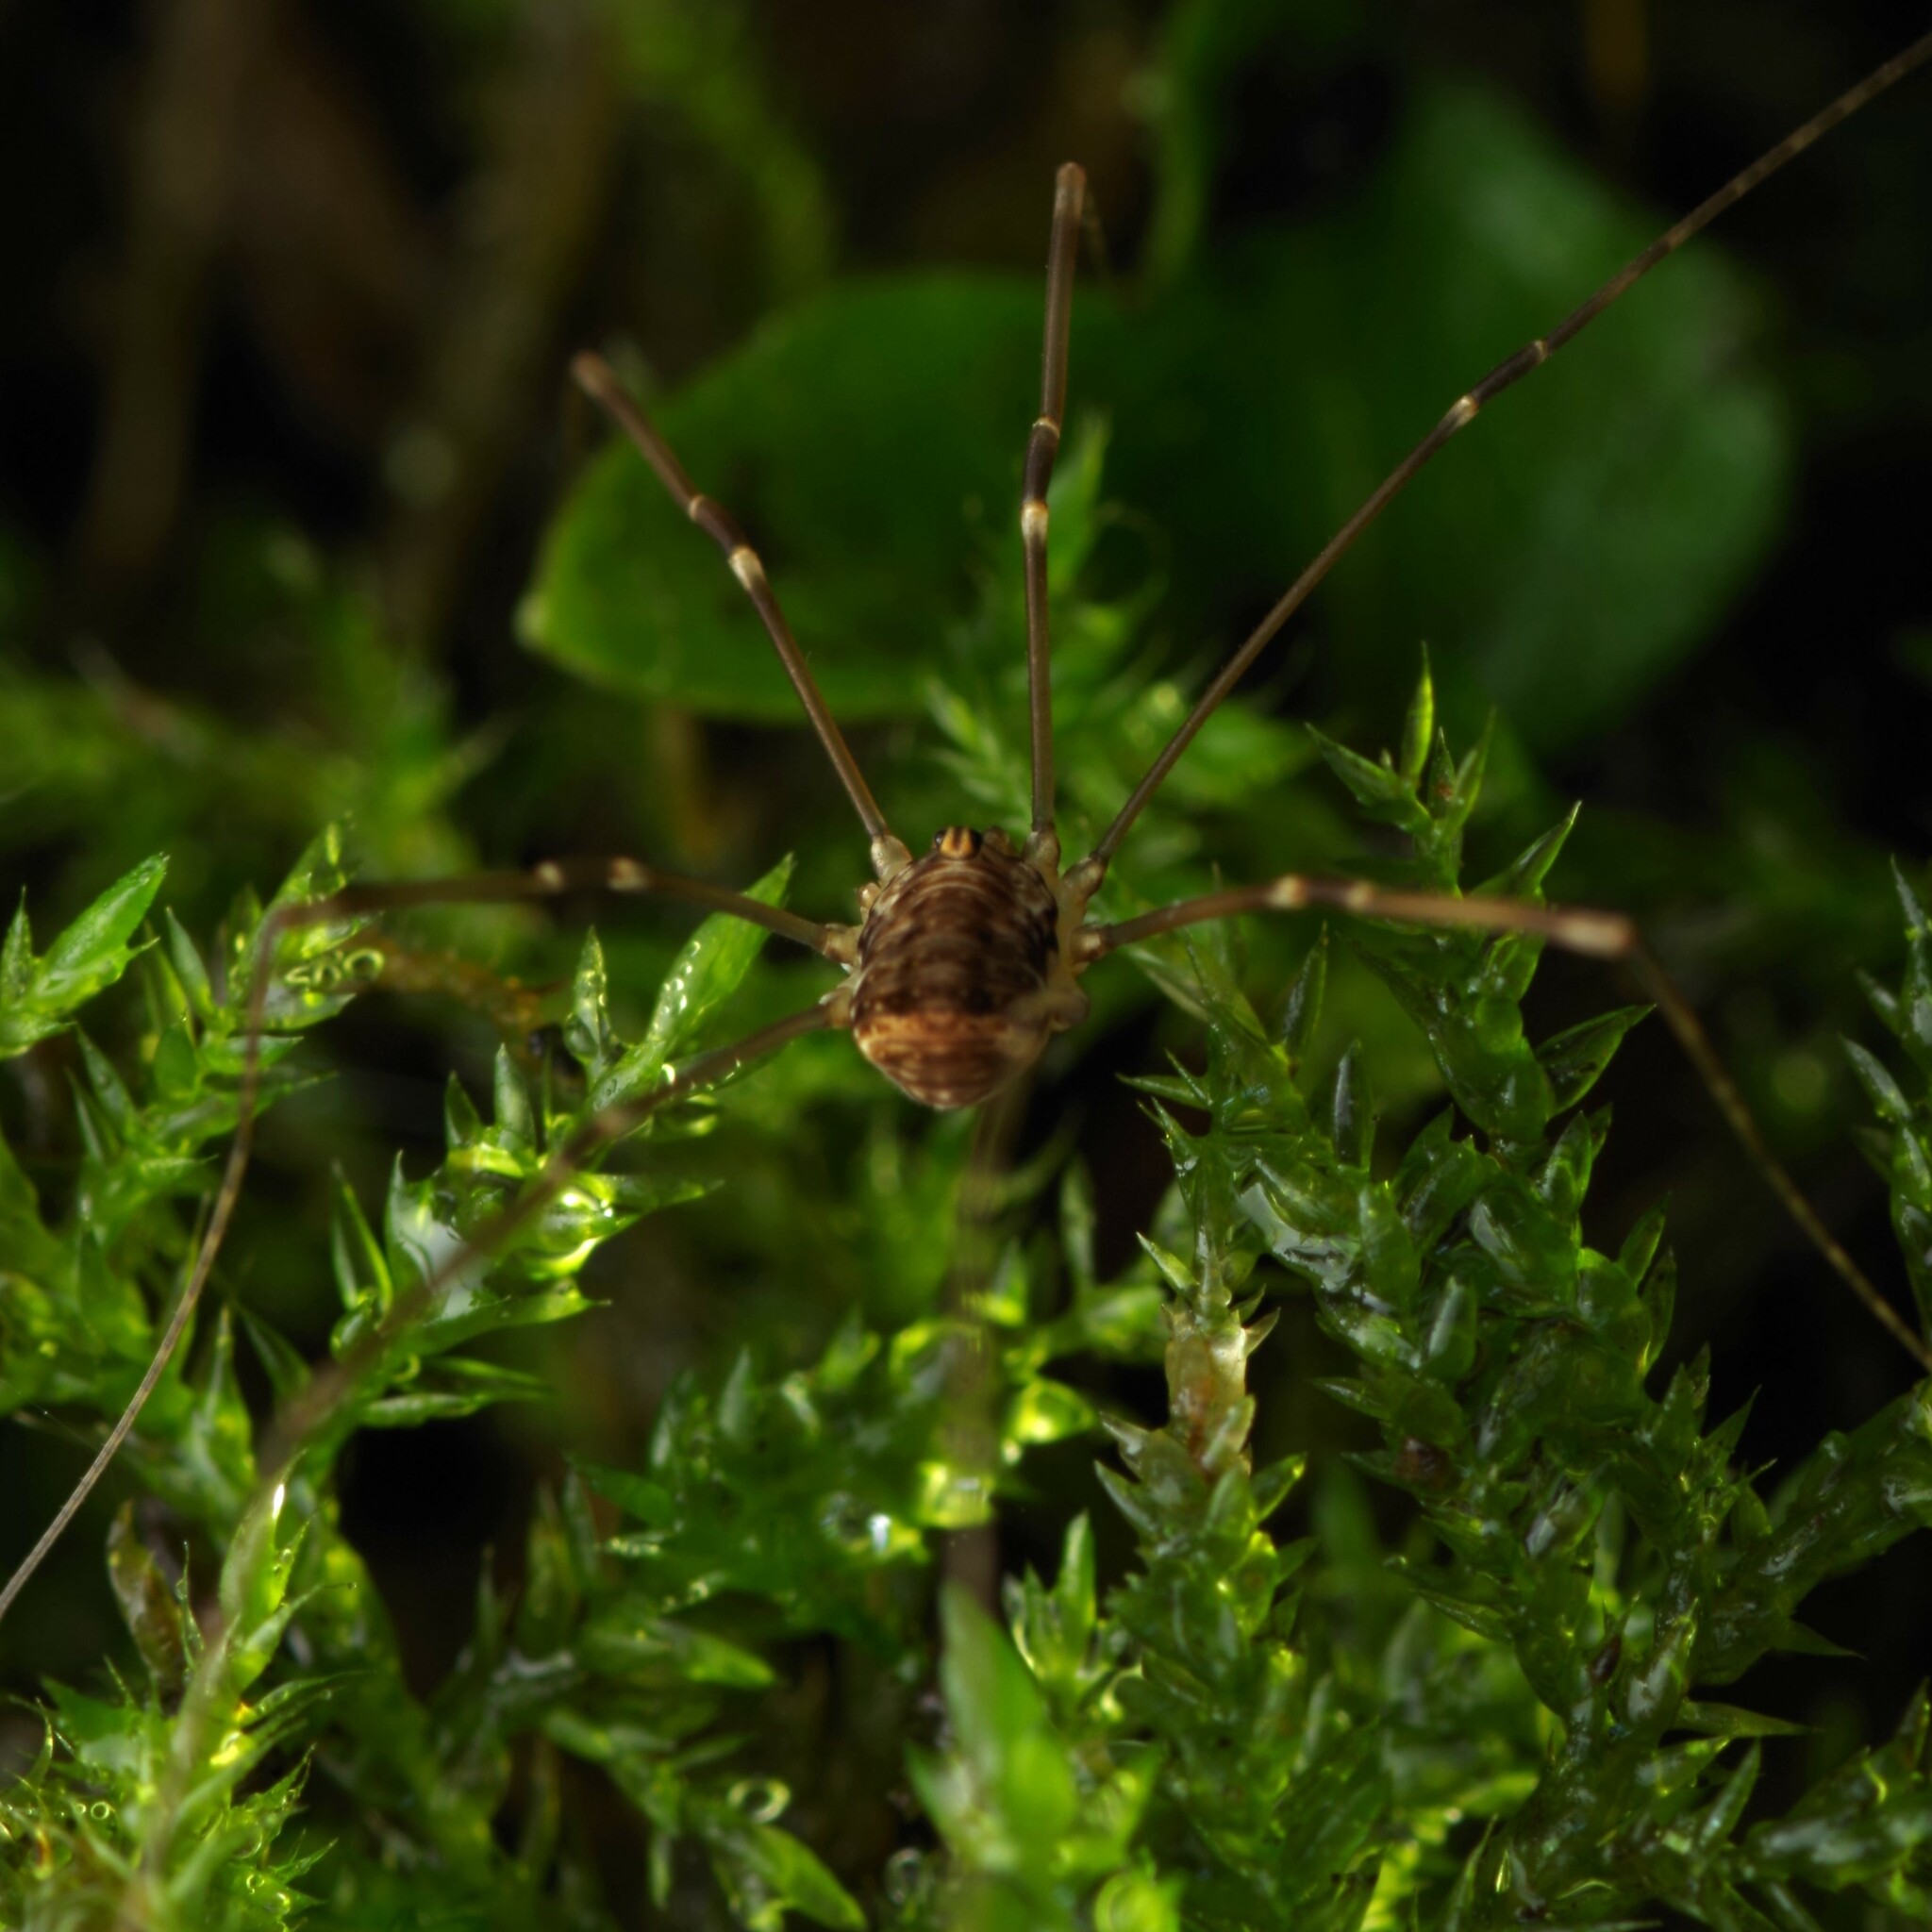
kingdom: Animalia
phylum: Arthropoda
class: Arachnida
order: Opiliones
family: Sclerosomatidae
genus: Leiobunum
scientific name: Leiobunum blackwalli
